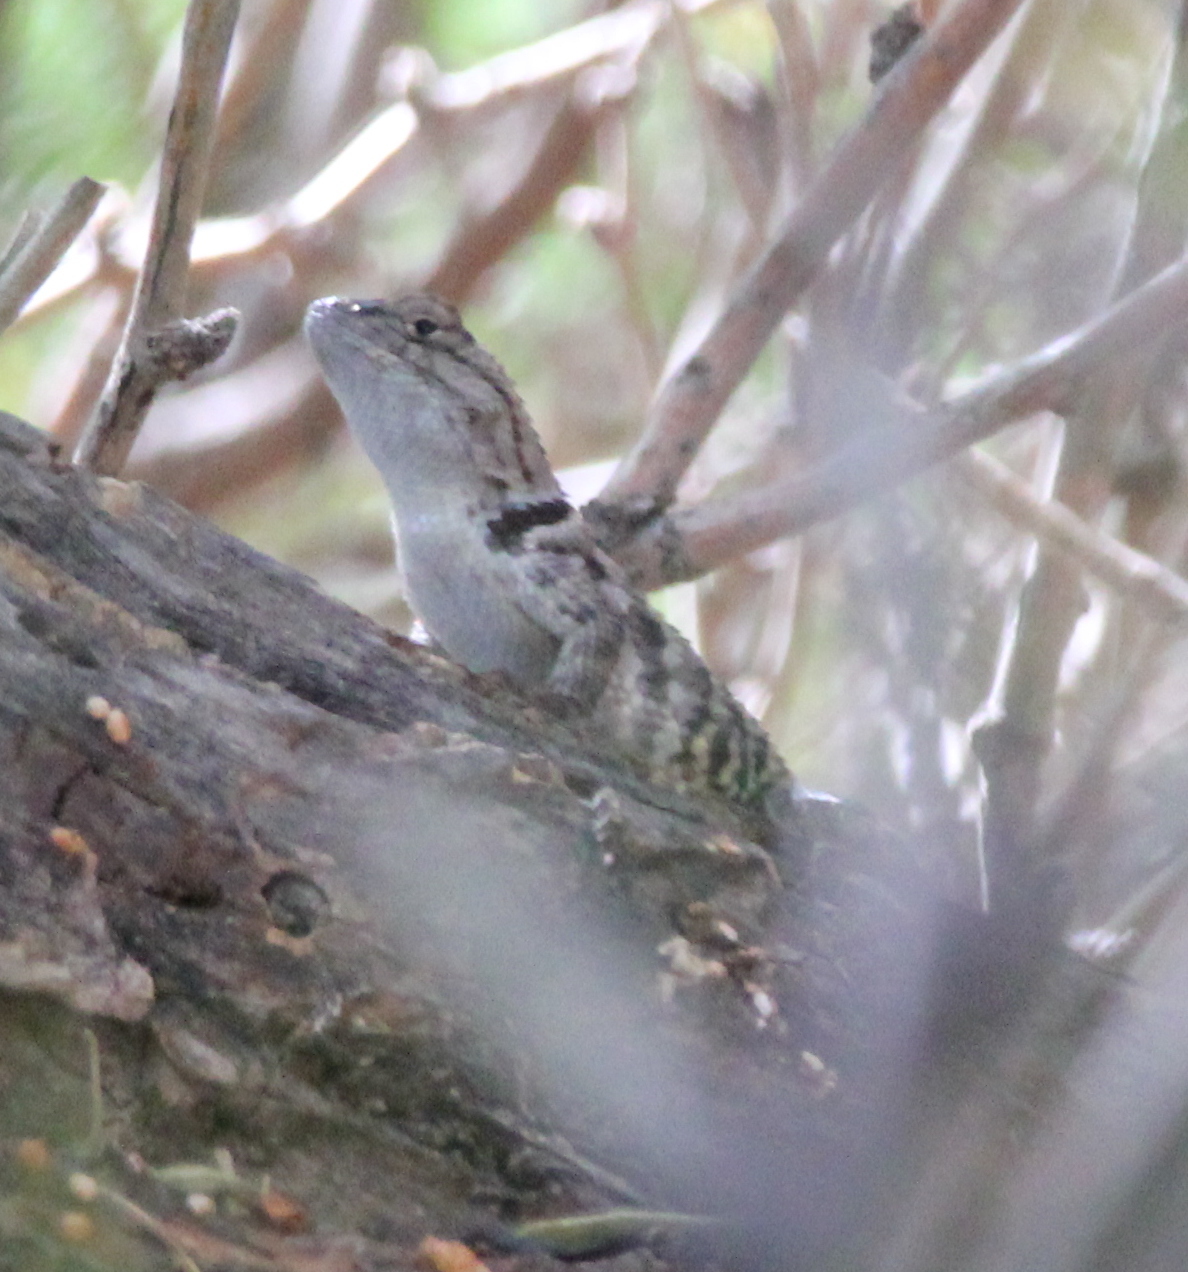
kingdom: Animalia
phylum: Chordata
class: Squamata
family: Phrynosomatidae
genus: Sceloporus
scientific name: Sceloporus magister
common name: Desert spiny lizard
